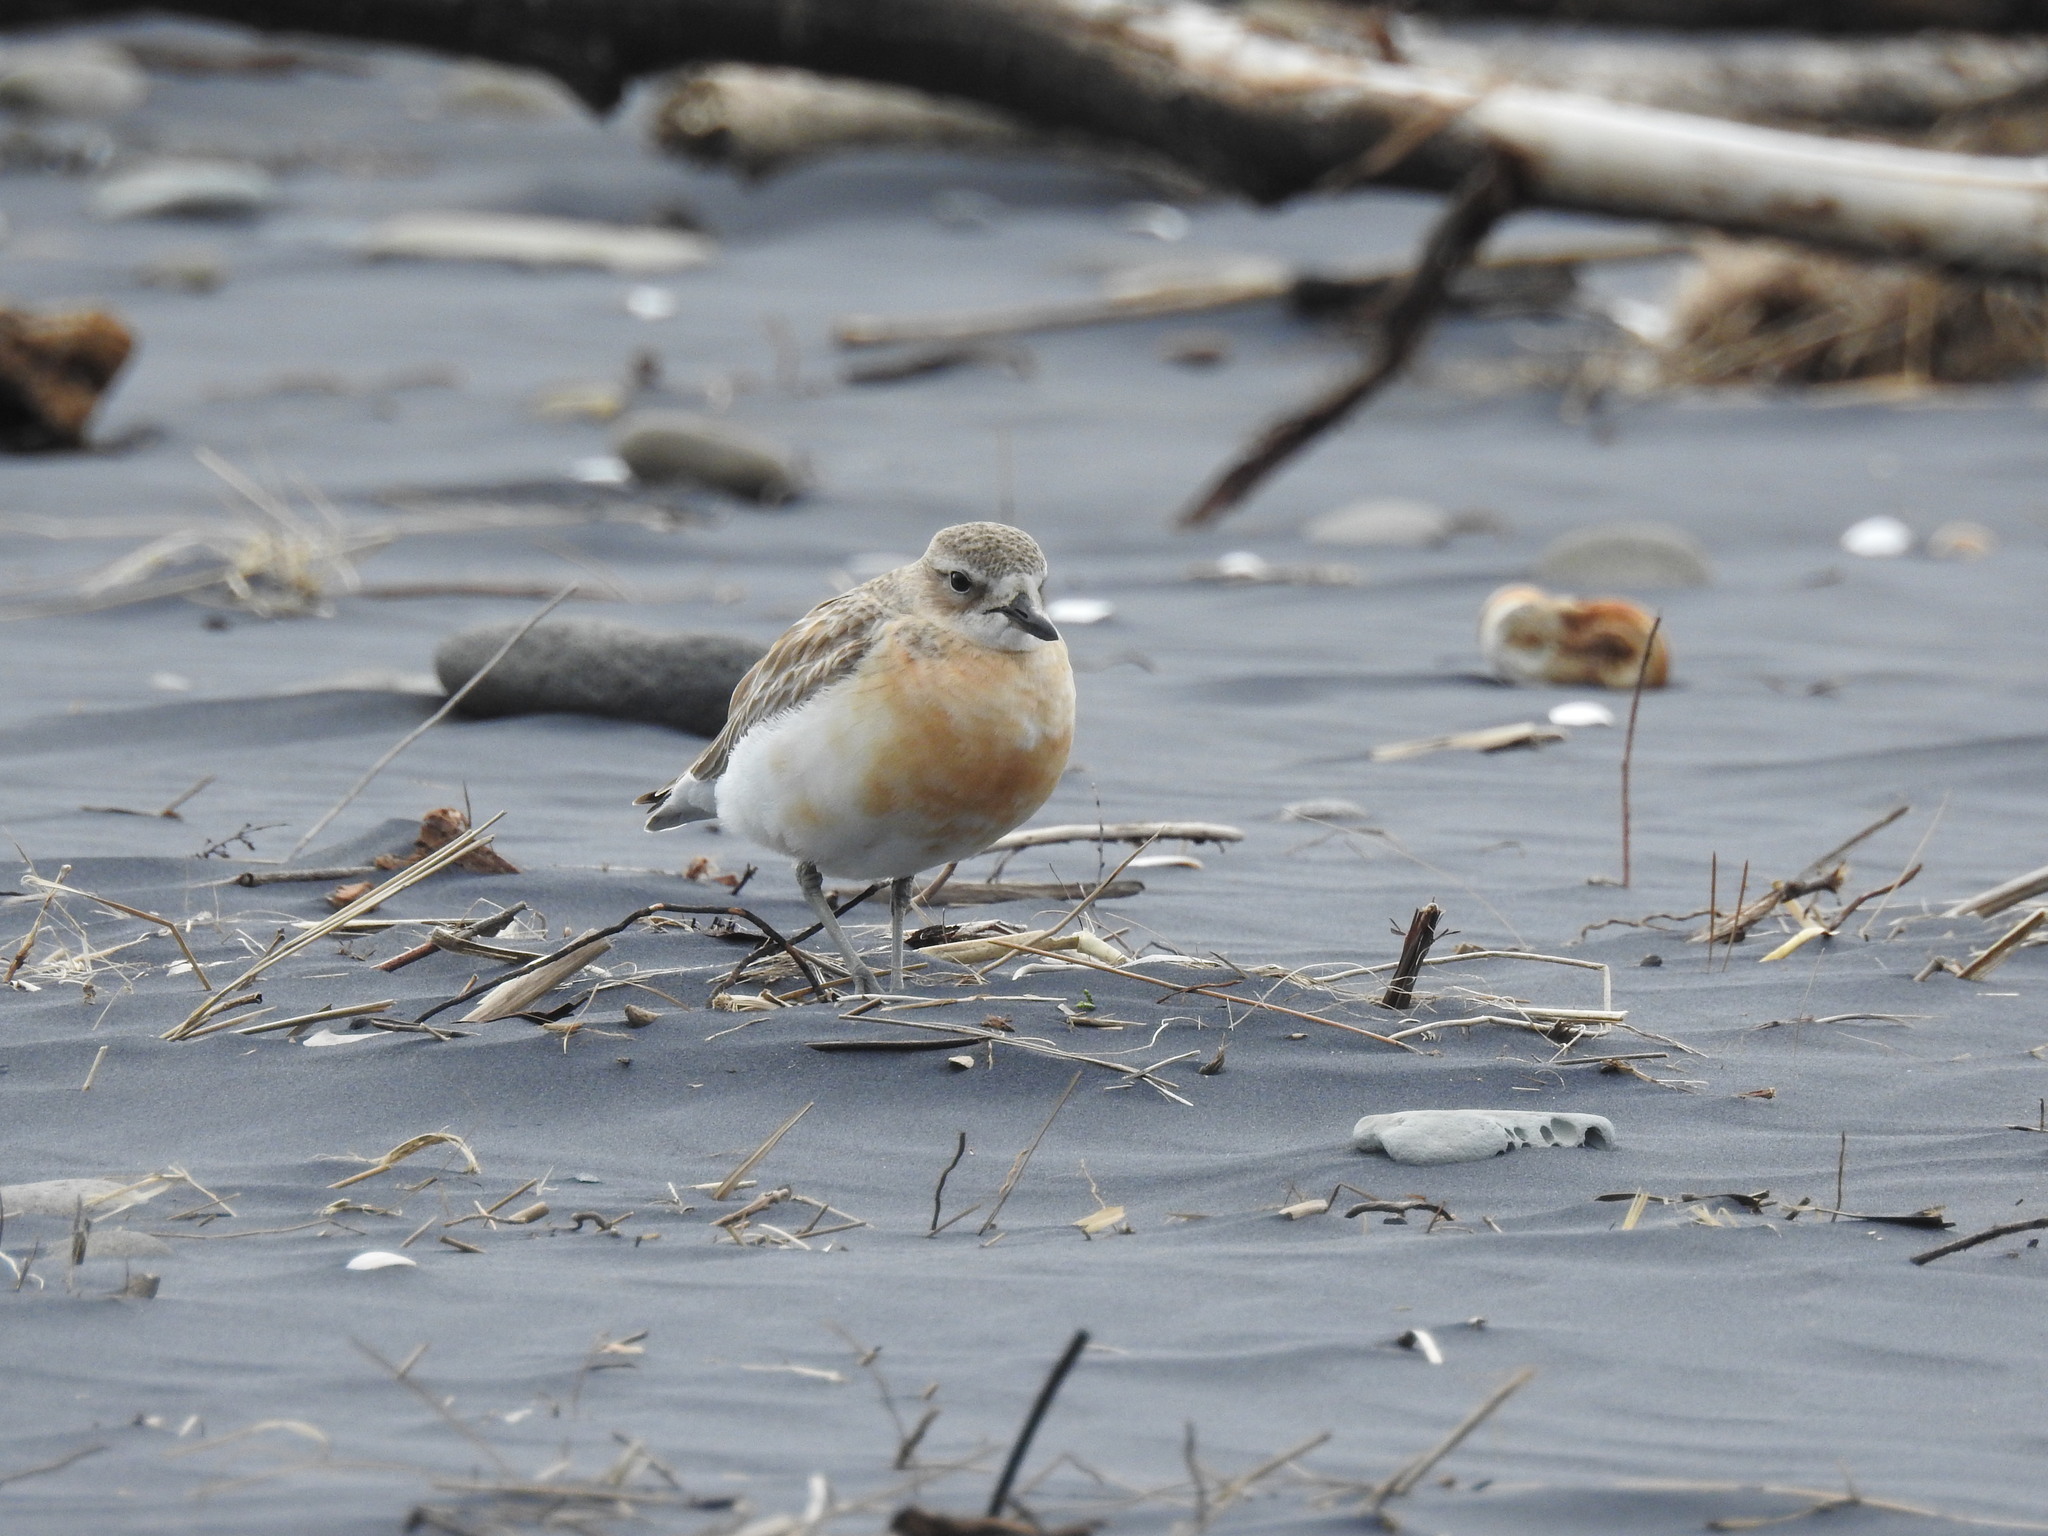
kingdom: Animalia
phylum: Chordata
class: Aves
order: Charadriiformes
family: Charadriidae
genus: Anarhynchus
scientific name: Anarhynchus
